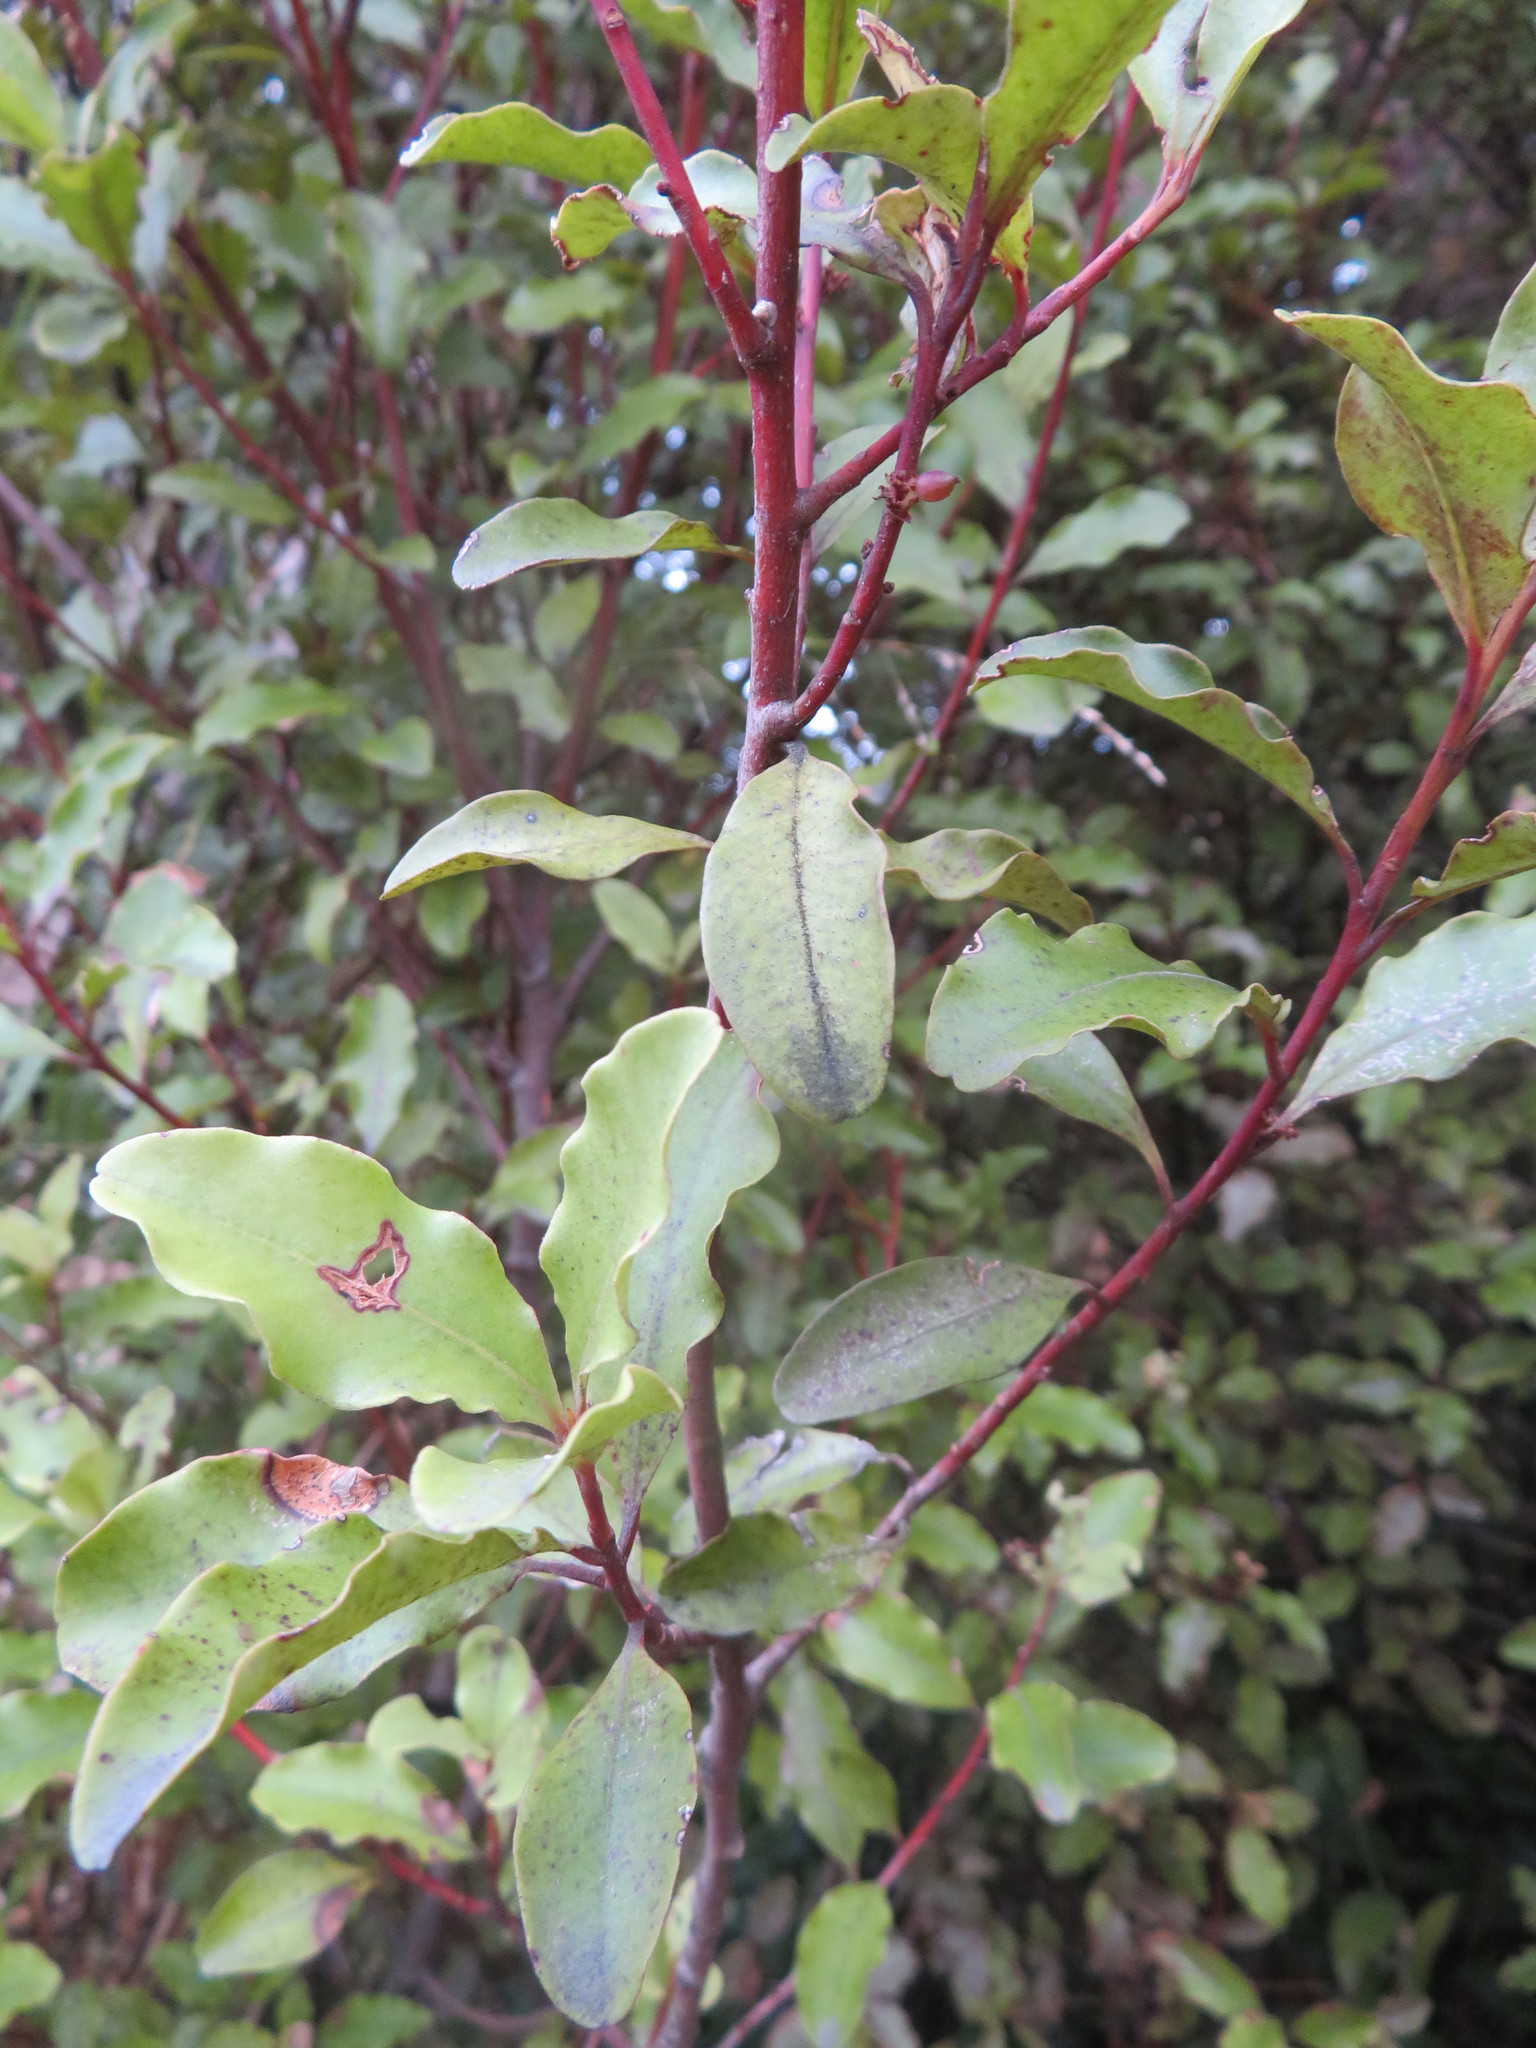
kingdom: Plantae
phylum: Tracheophyta
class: Magnoliopsida
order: Ericales
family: Primulaceae
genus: Myrsine
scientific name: Myrsine australis
